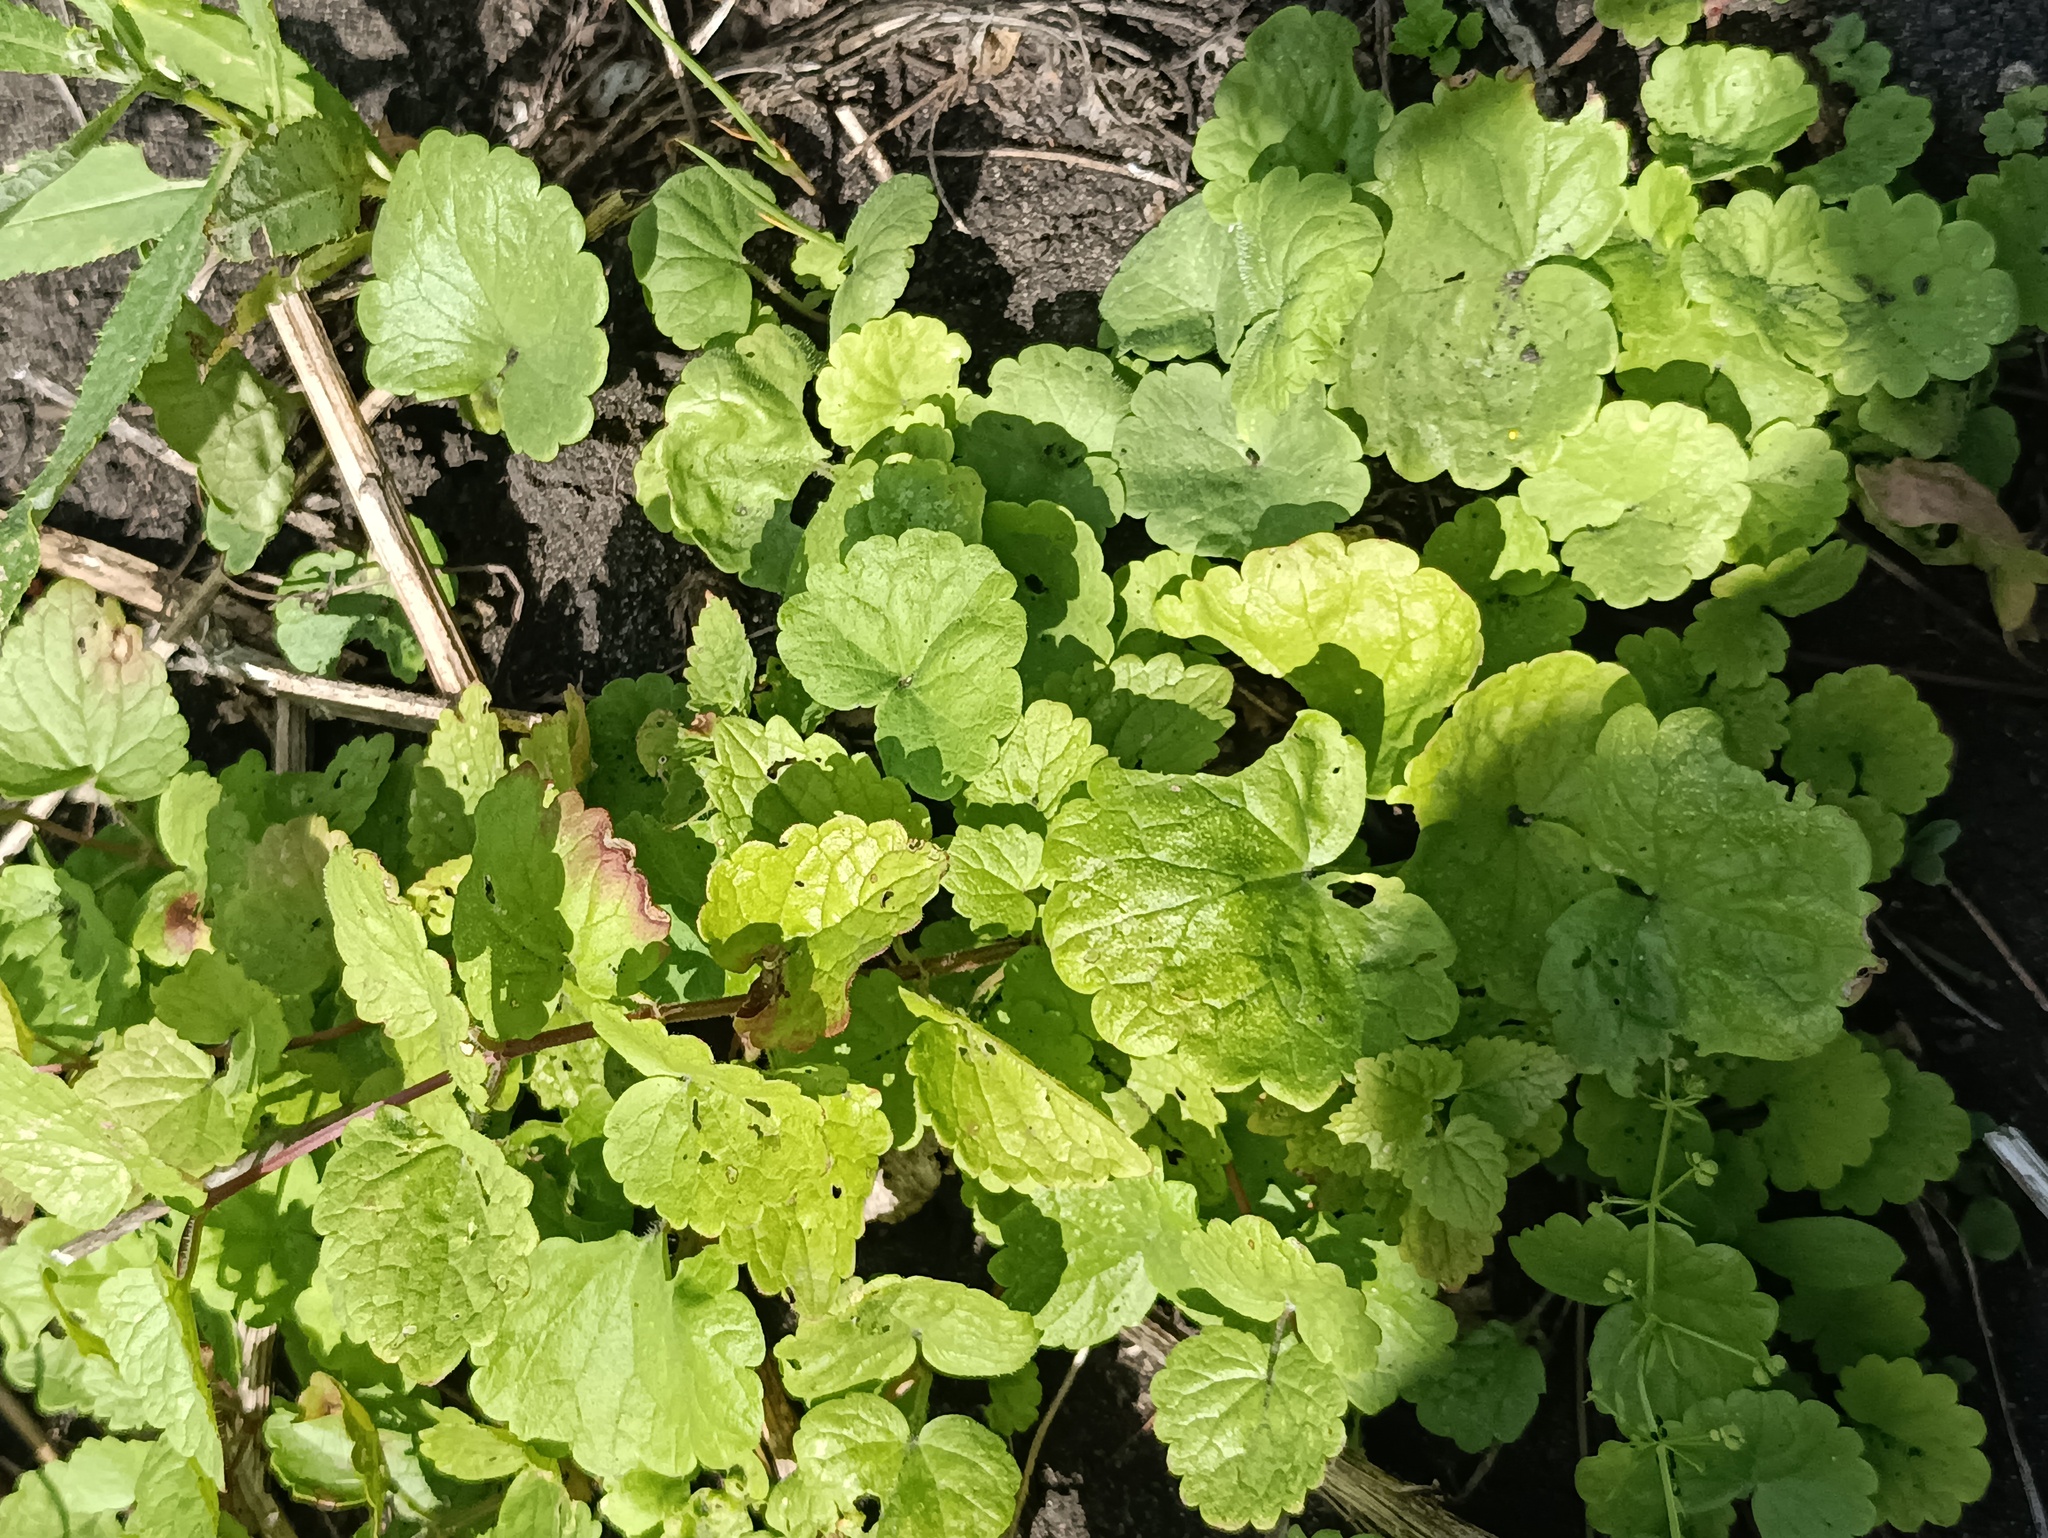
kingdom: Plantae
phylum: Tracheophyta
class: Magnoliopsida
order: Lamiales
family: Lamiaceae
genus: Glechoma
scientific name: Glechoma hederacea
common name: Ground ivy
